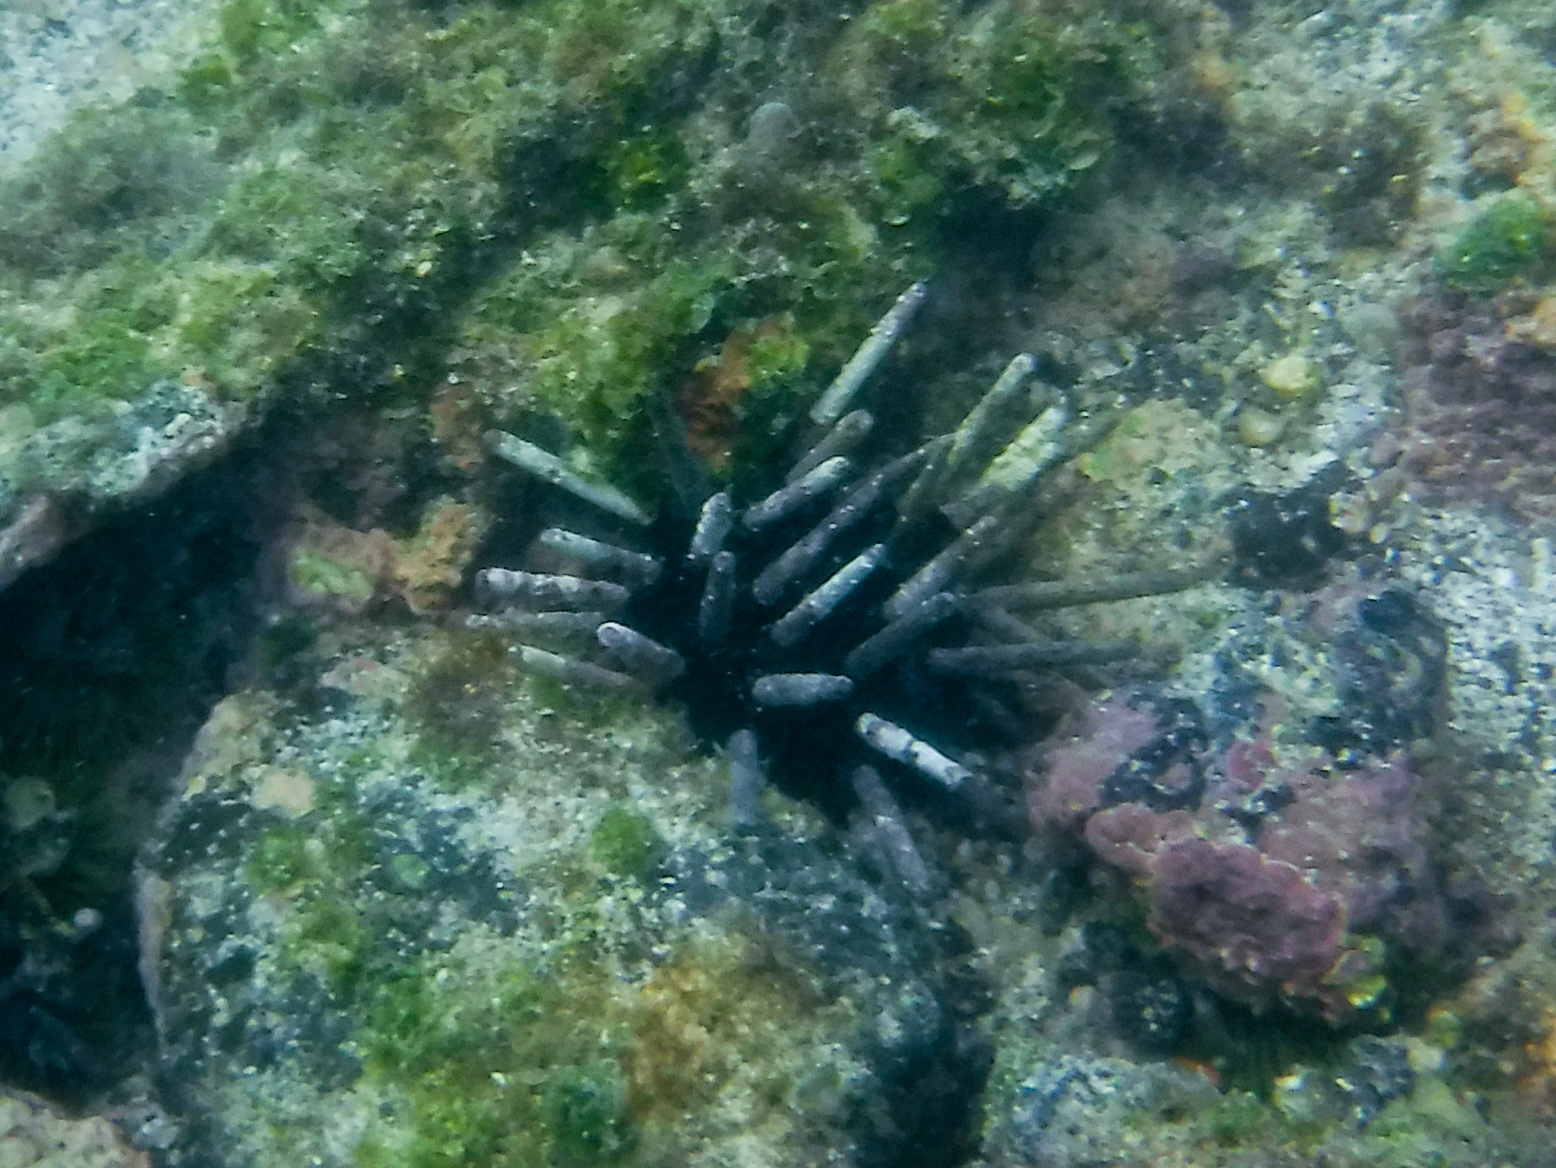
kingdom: Animalia
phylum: Echinodermata
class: Echinoidea
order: Cidaroida
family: Cidaridae
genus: Eucidaris
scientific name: Eucidaris galapagensis
